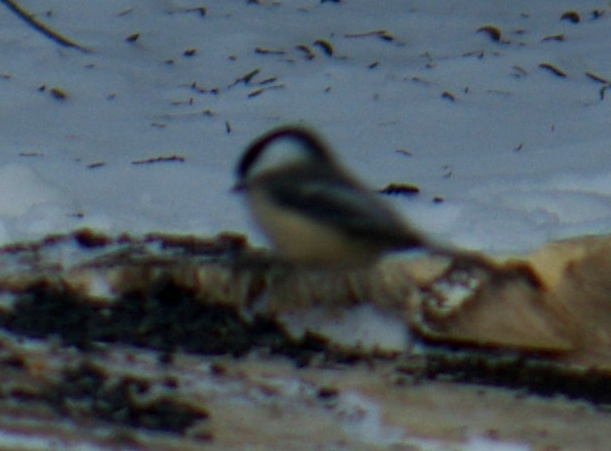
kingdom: Animalia
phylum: Chordata
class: Aves
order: Passeriformes
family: Paridae
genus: Poecile
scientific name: Poecile atricapillus
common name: Black-capped chickadee
